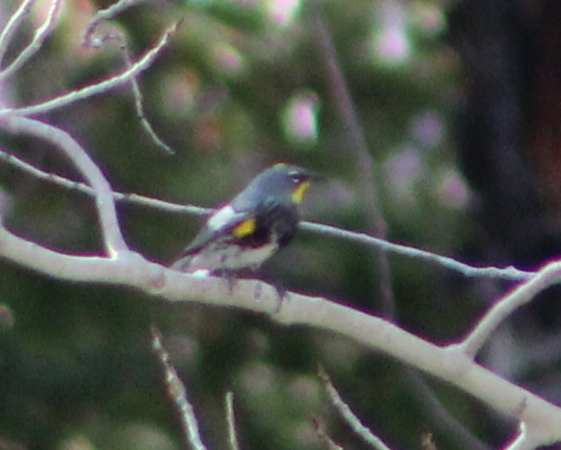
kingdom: Animalia
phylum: Chordata
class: Aves
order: Passeriformes
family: Parulidae
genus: Setophaga
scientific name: Setophaga coronata
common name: Myrtle warbler
